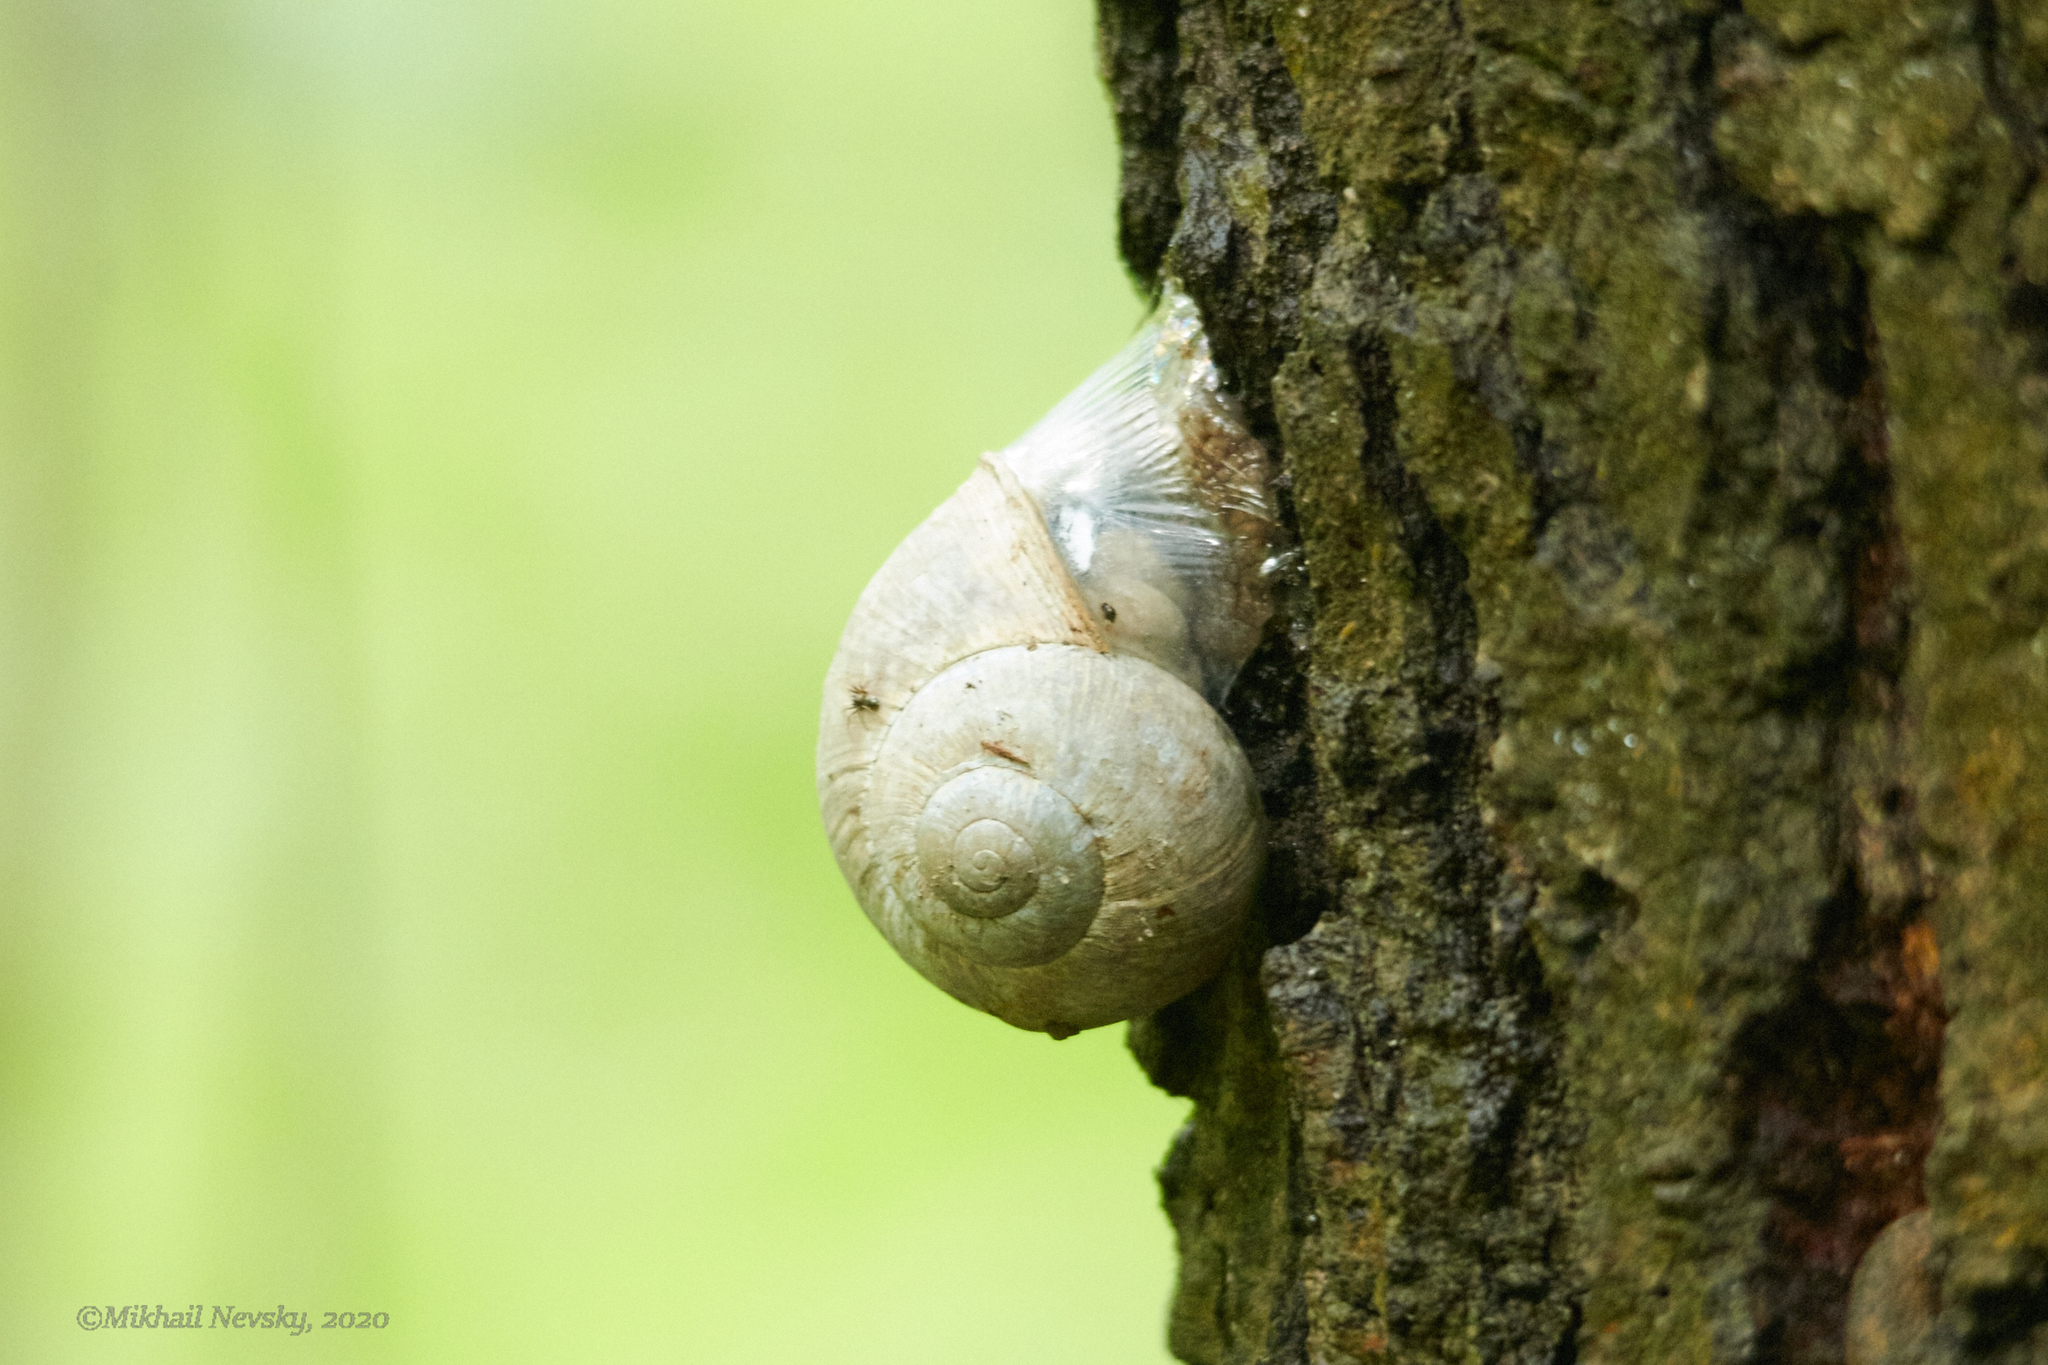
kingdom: Animalia
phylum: Mollusca
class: Gastropoda
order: Stylommatophora
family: Helicidae
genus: Helix
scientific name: Helix pomatia
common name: Roman snail
